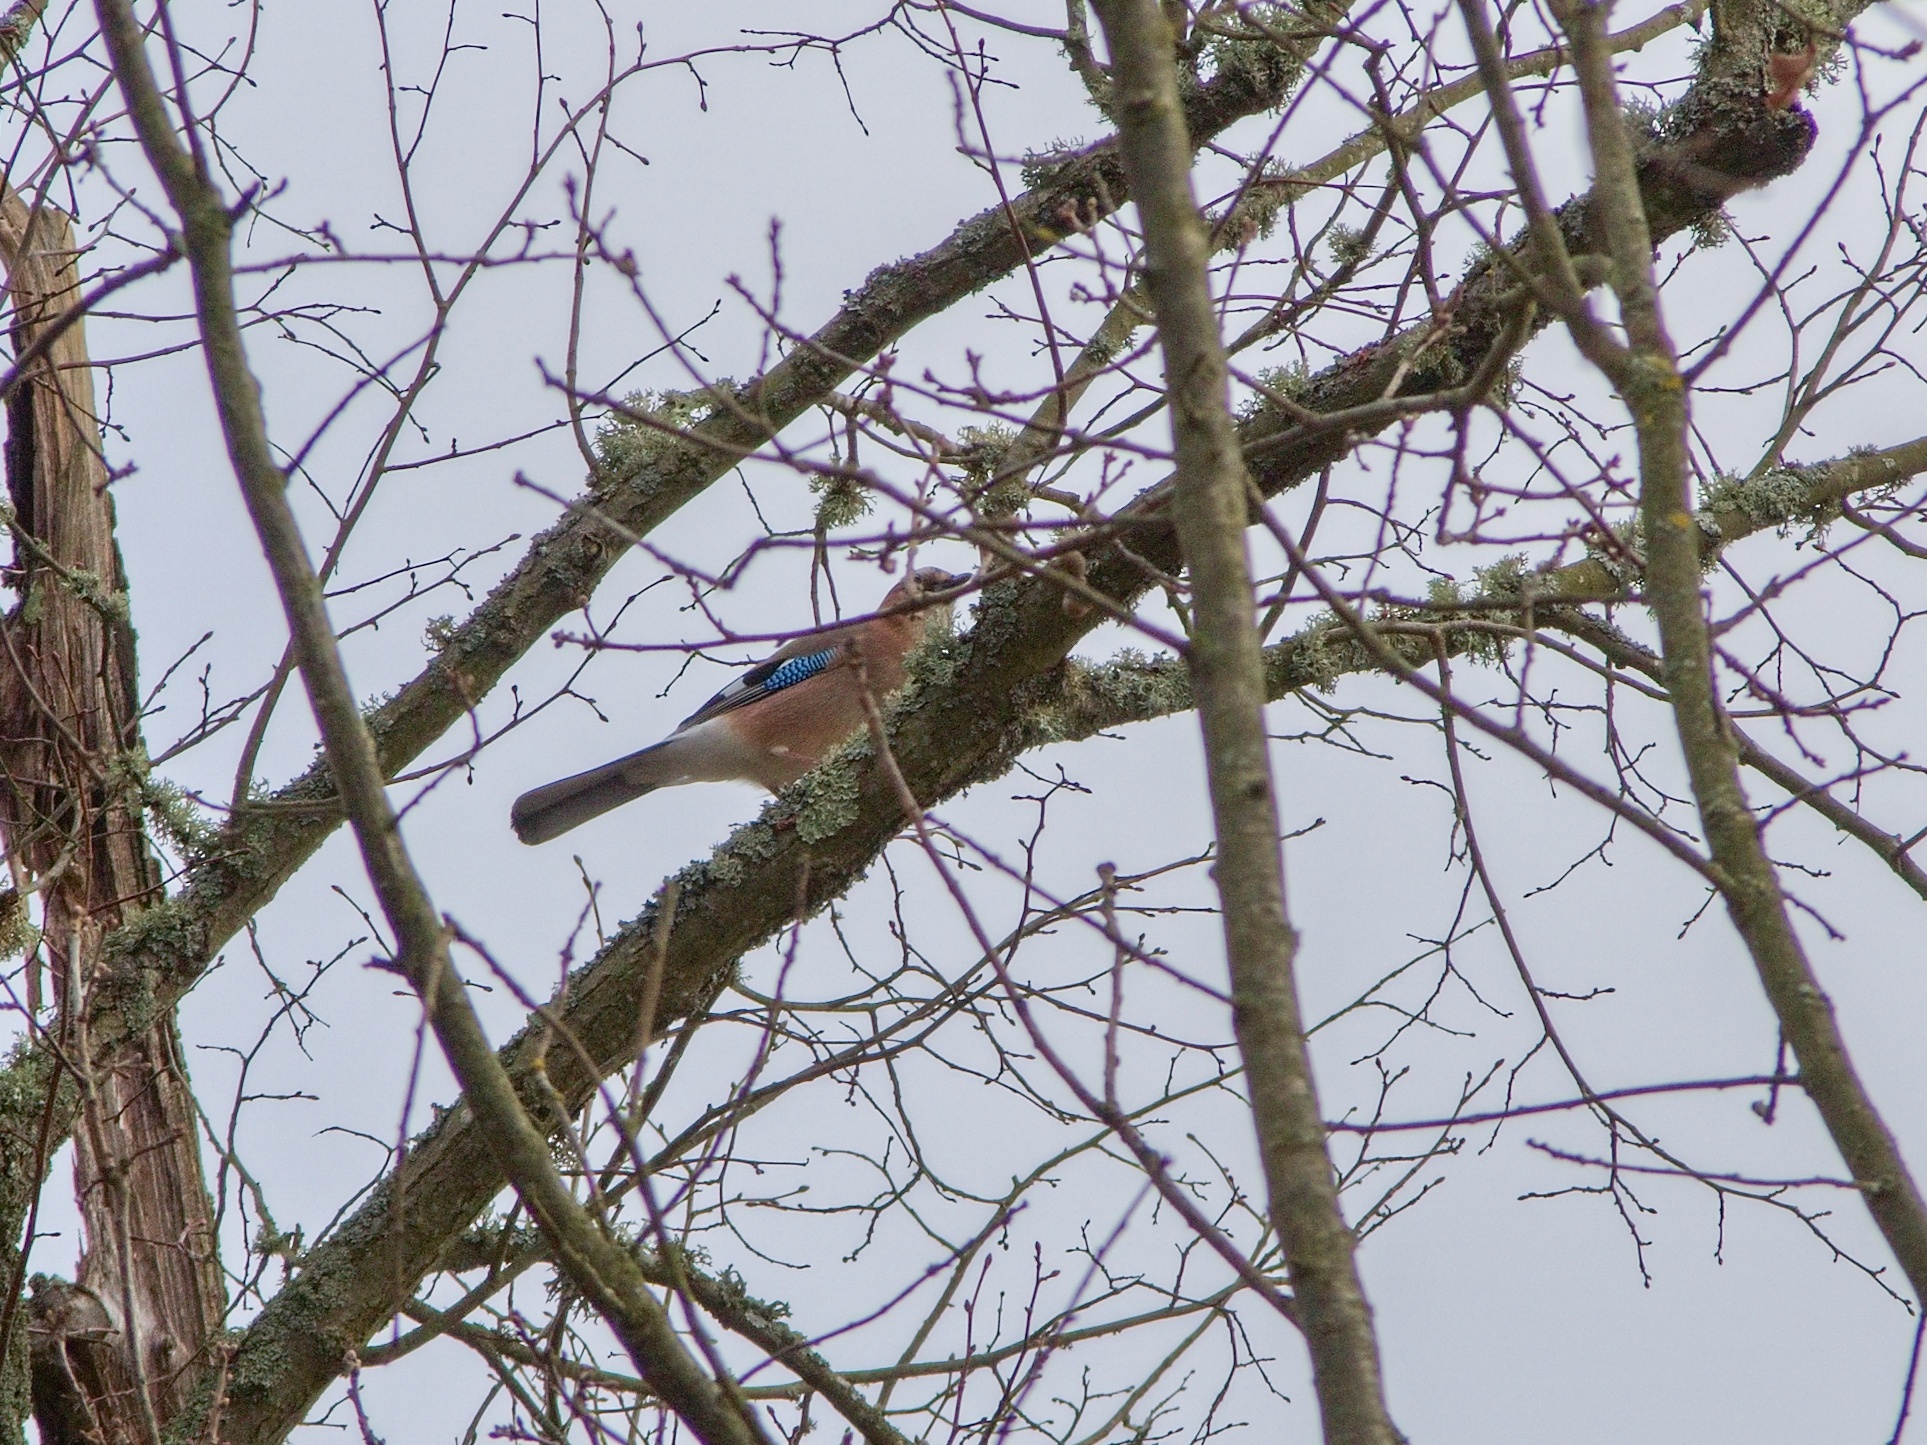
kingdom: Animalia
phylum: Chordata
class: Aves
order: Passeriformes
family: Corvidae
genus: Garrulus
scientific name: Garrulus glandarius
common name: Eurasian jay
